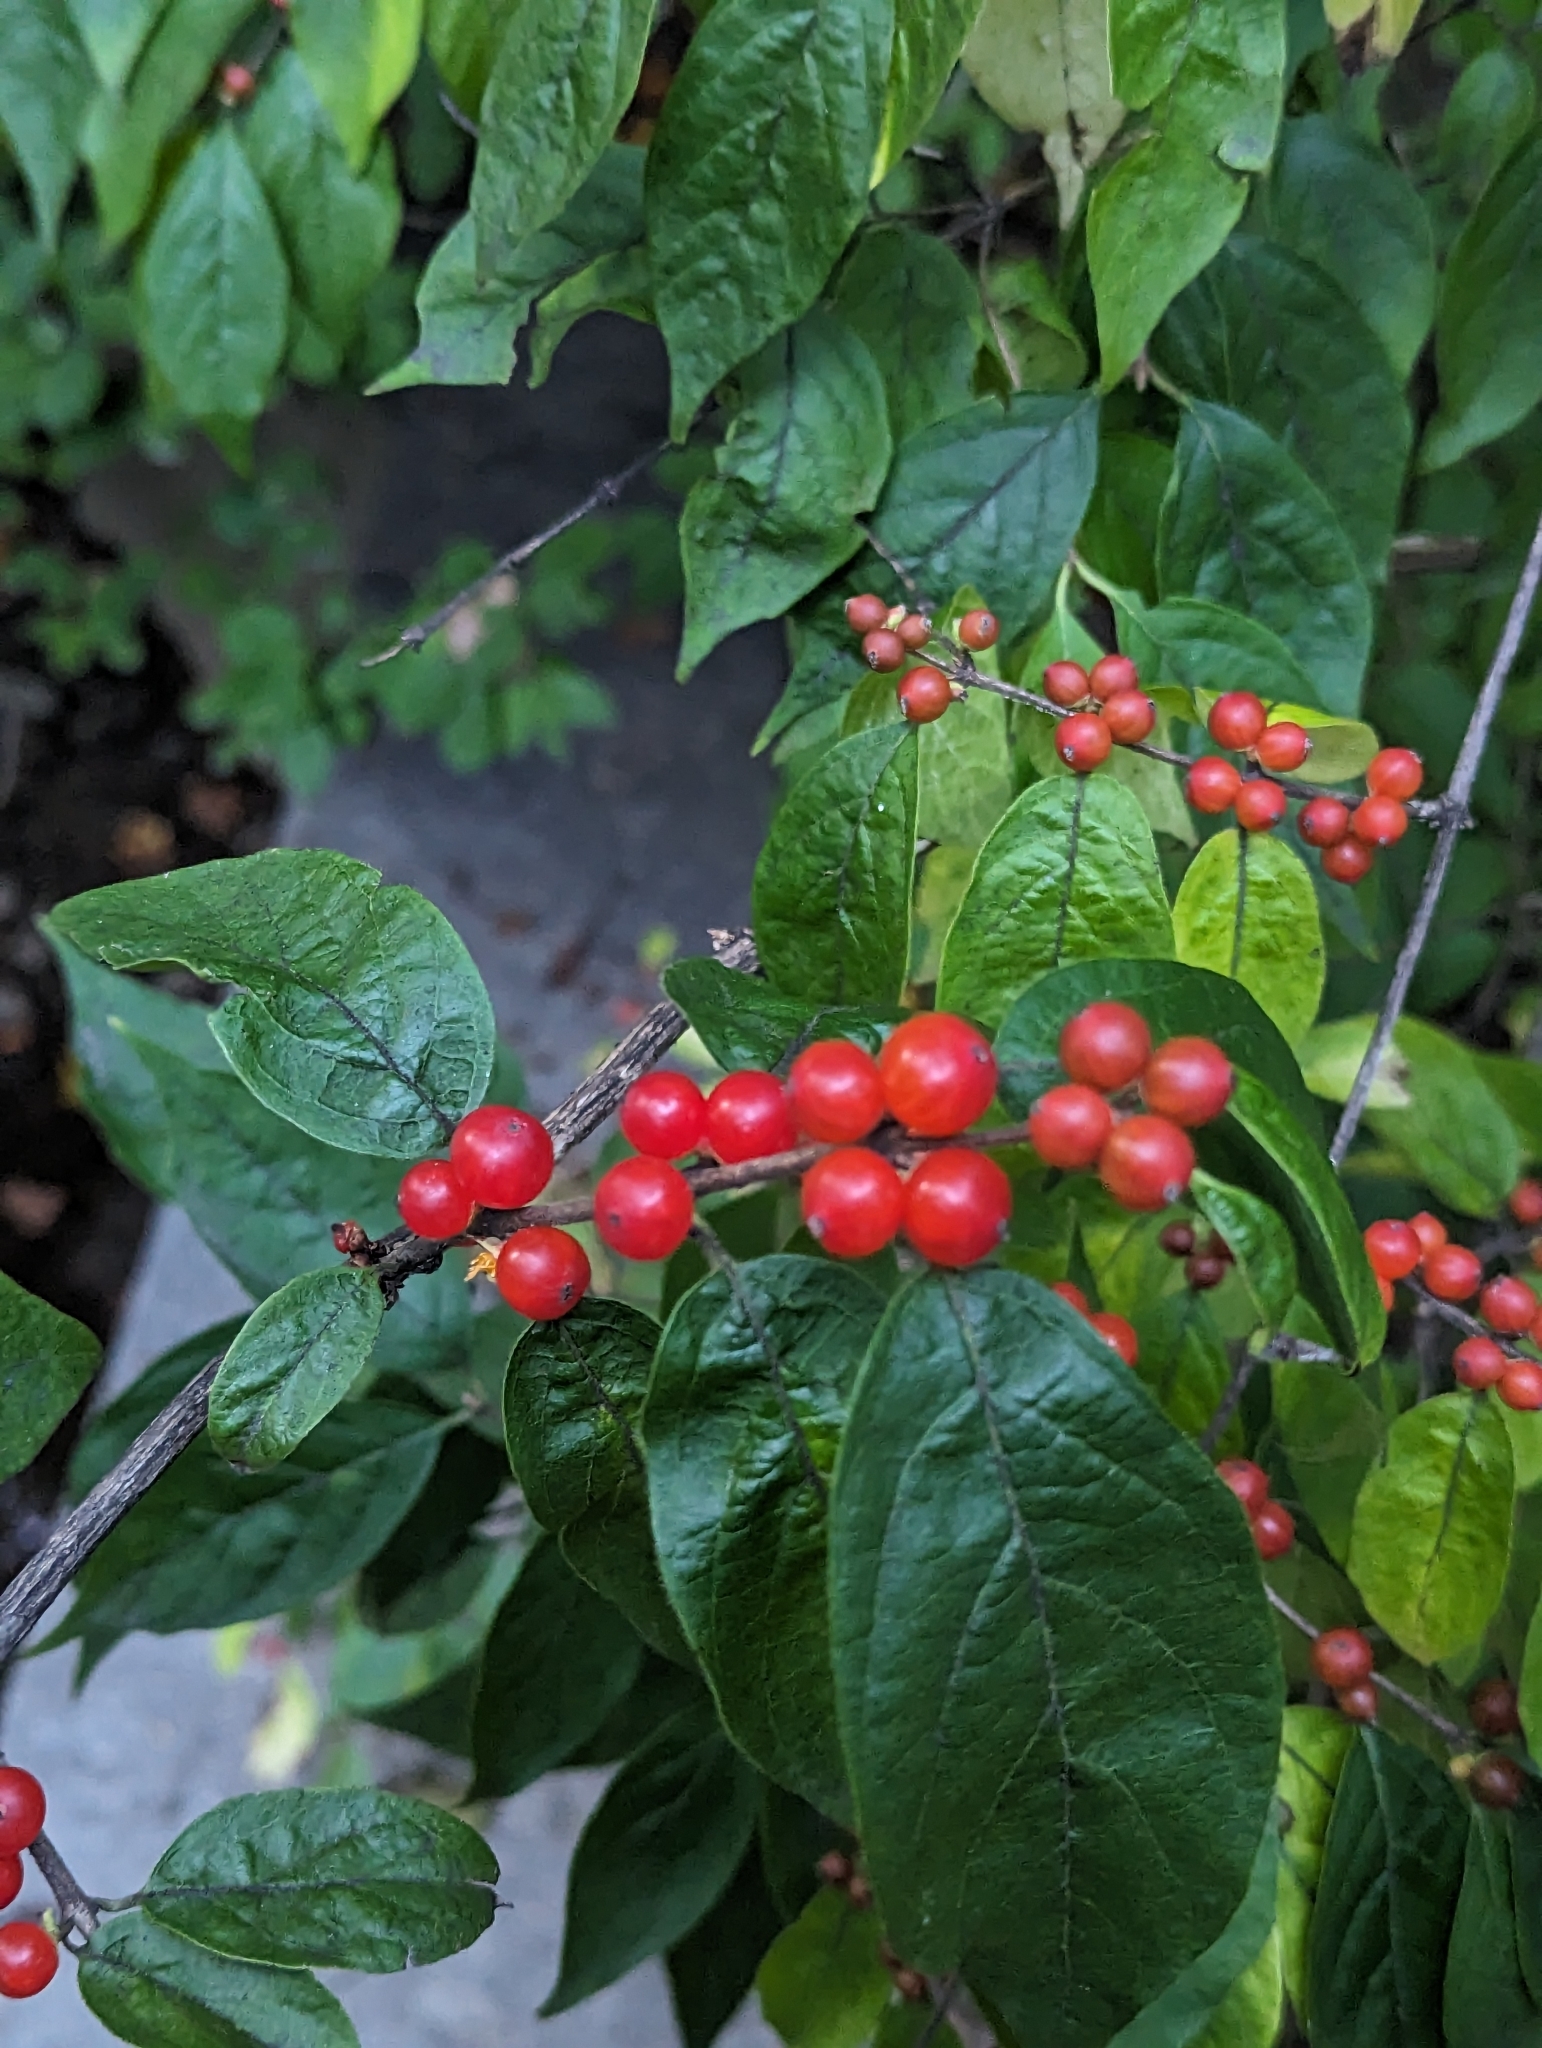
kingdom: Plantae
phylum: Tracheophyta
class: Magnoliopsida
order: Dipsacales
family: Caprifoliaceae
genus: Lonicera
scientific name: Lonicera maackii
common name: Amur honeysuckle
